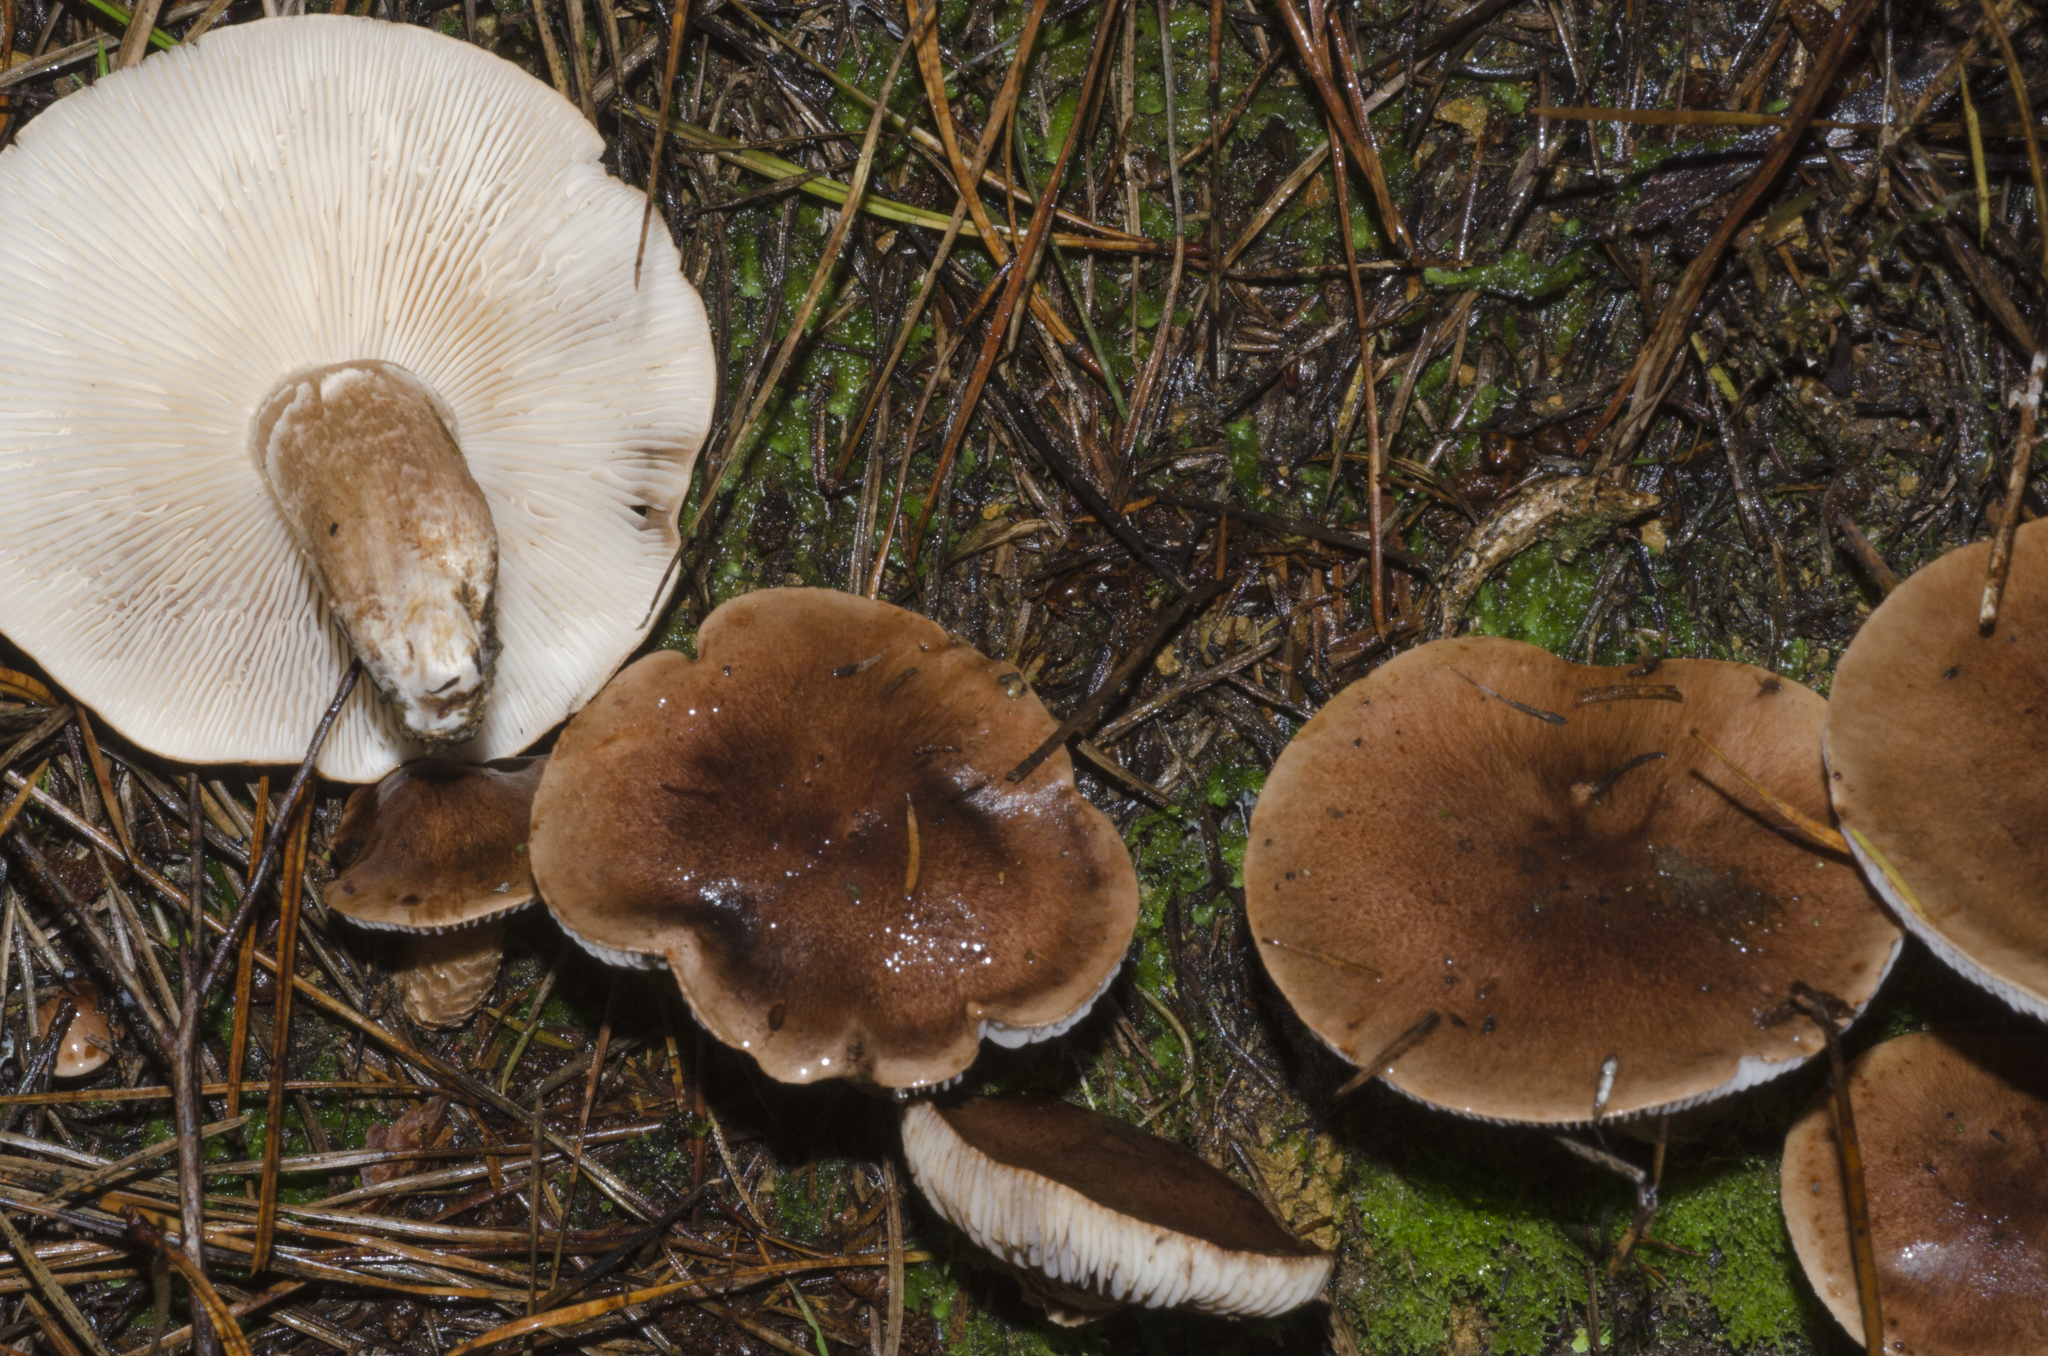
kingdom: Fungi
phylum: Basidiomycota
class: Agaricomycetes
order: Agaricales
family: Tricholomataceae
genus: Tricholoma
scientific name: Tricholoma albobrunneum
